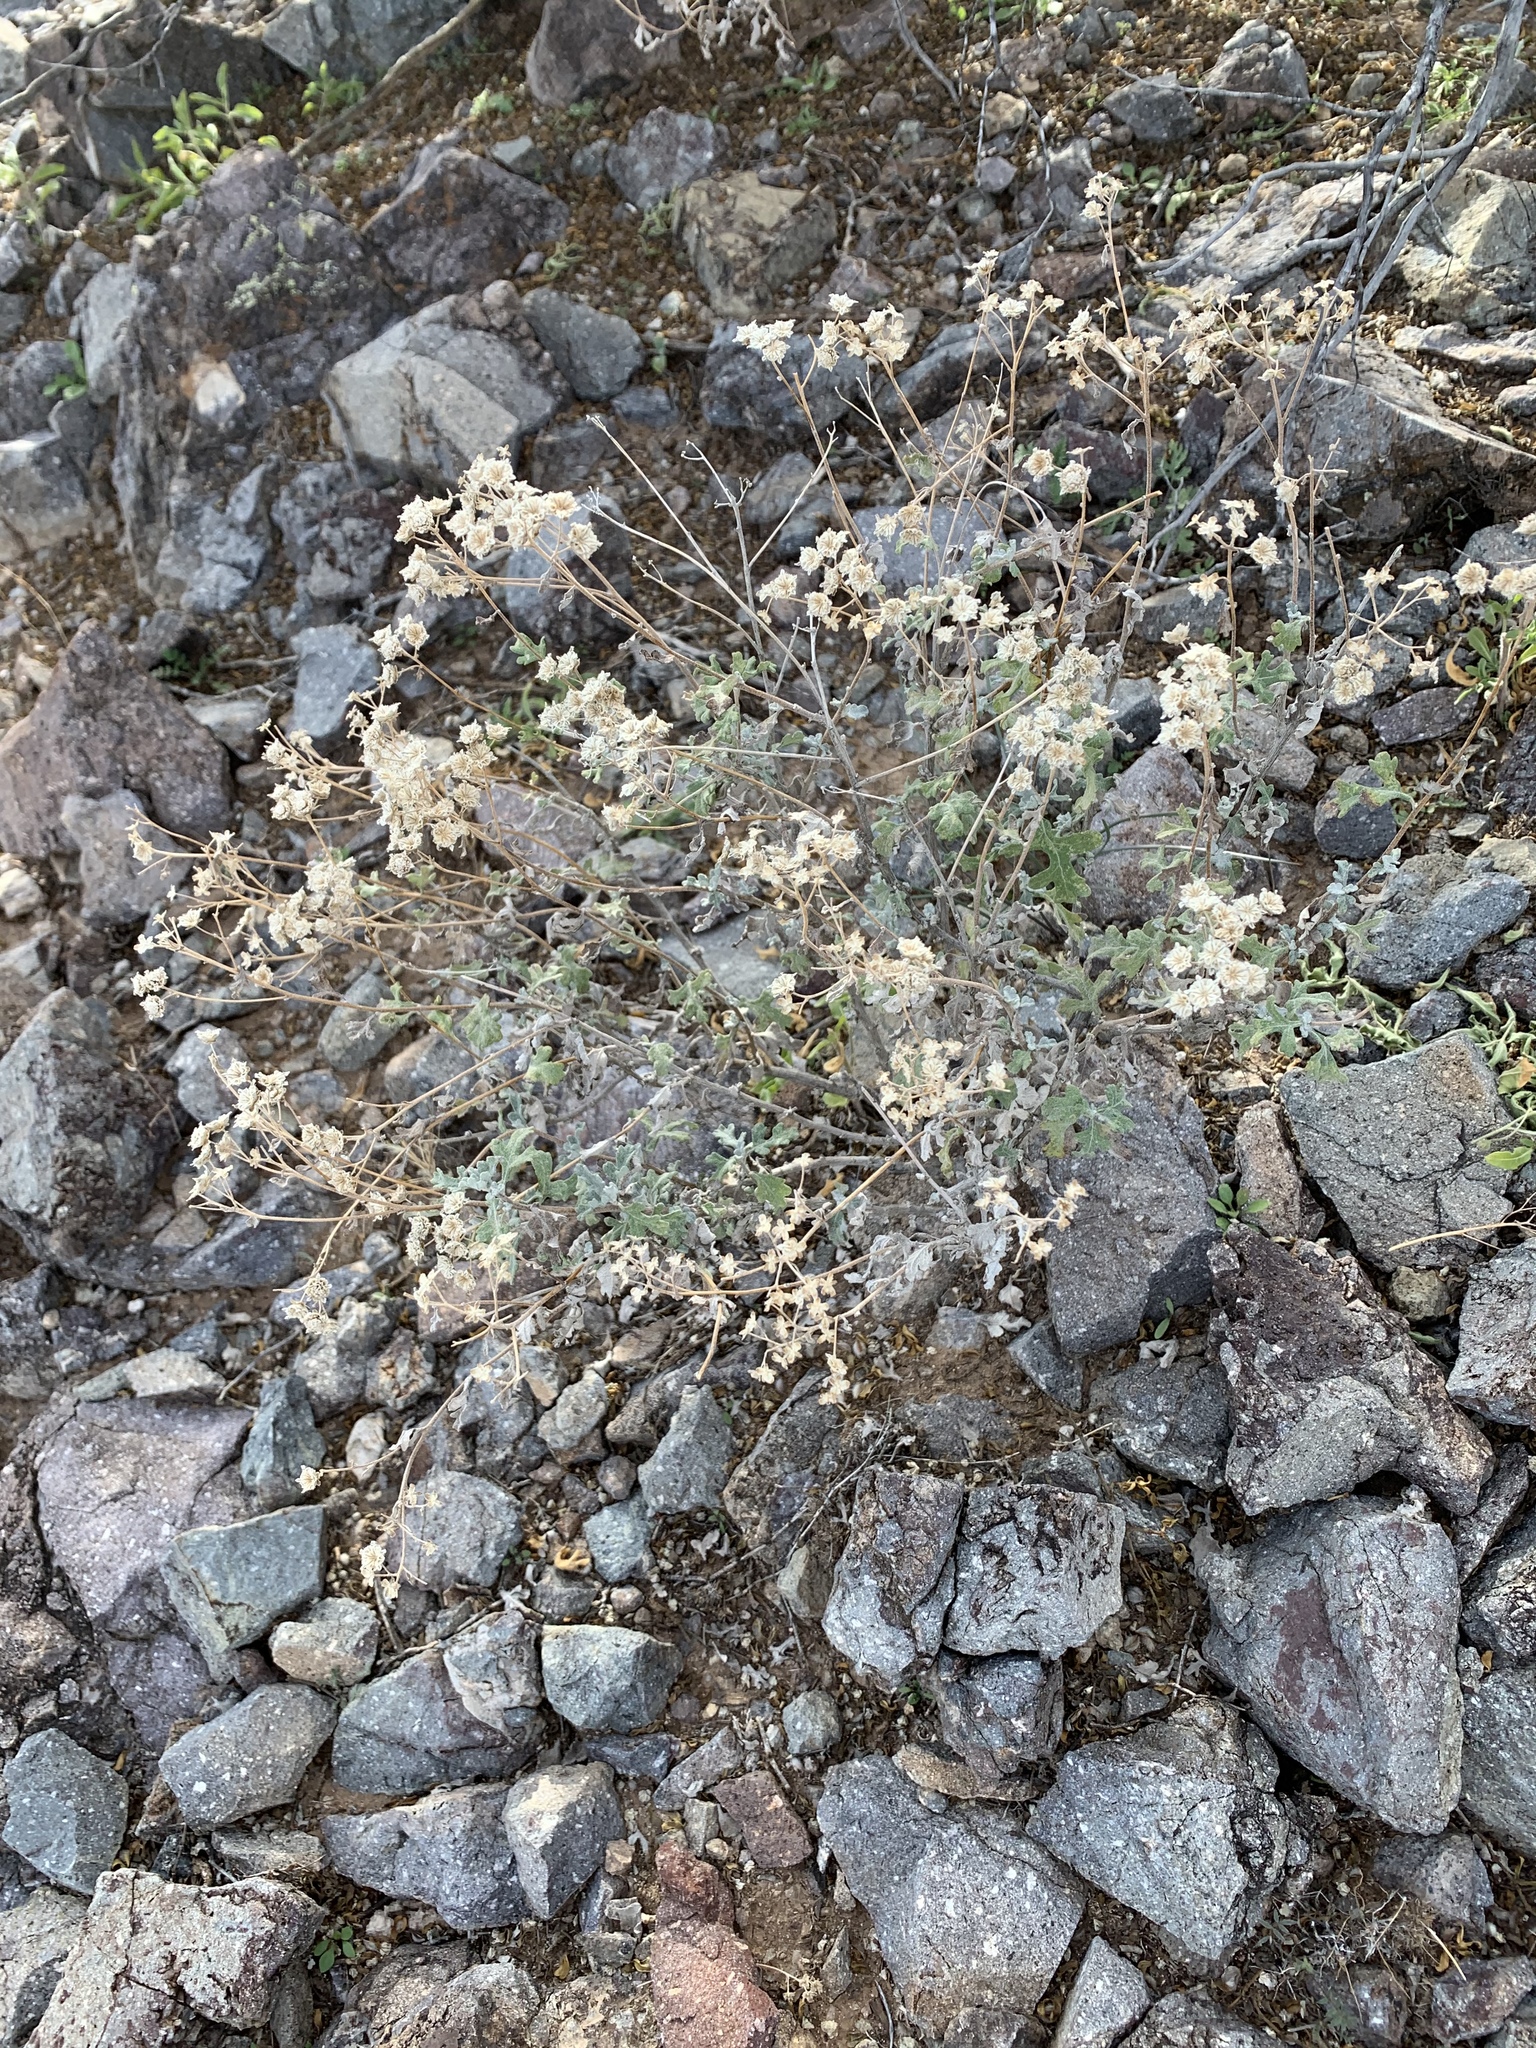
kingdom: Plantae
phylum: Tracheophyta
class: Magnoliopsida
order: Asterales
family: Asteraceae
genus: Parthenium
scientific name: Parthenium incanum
